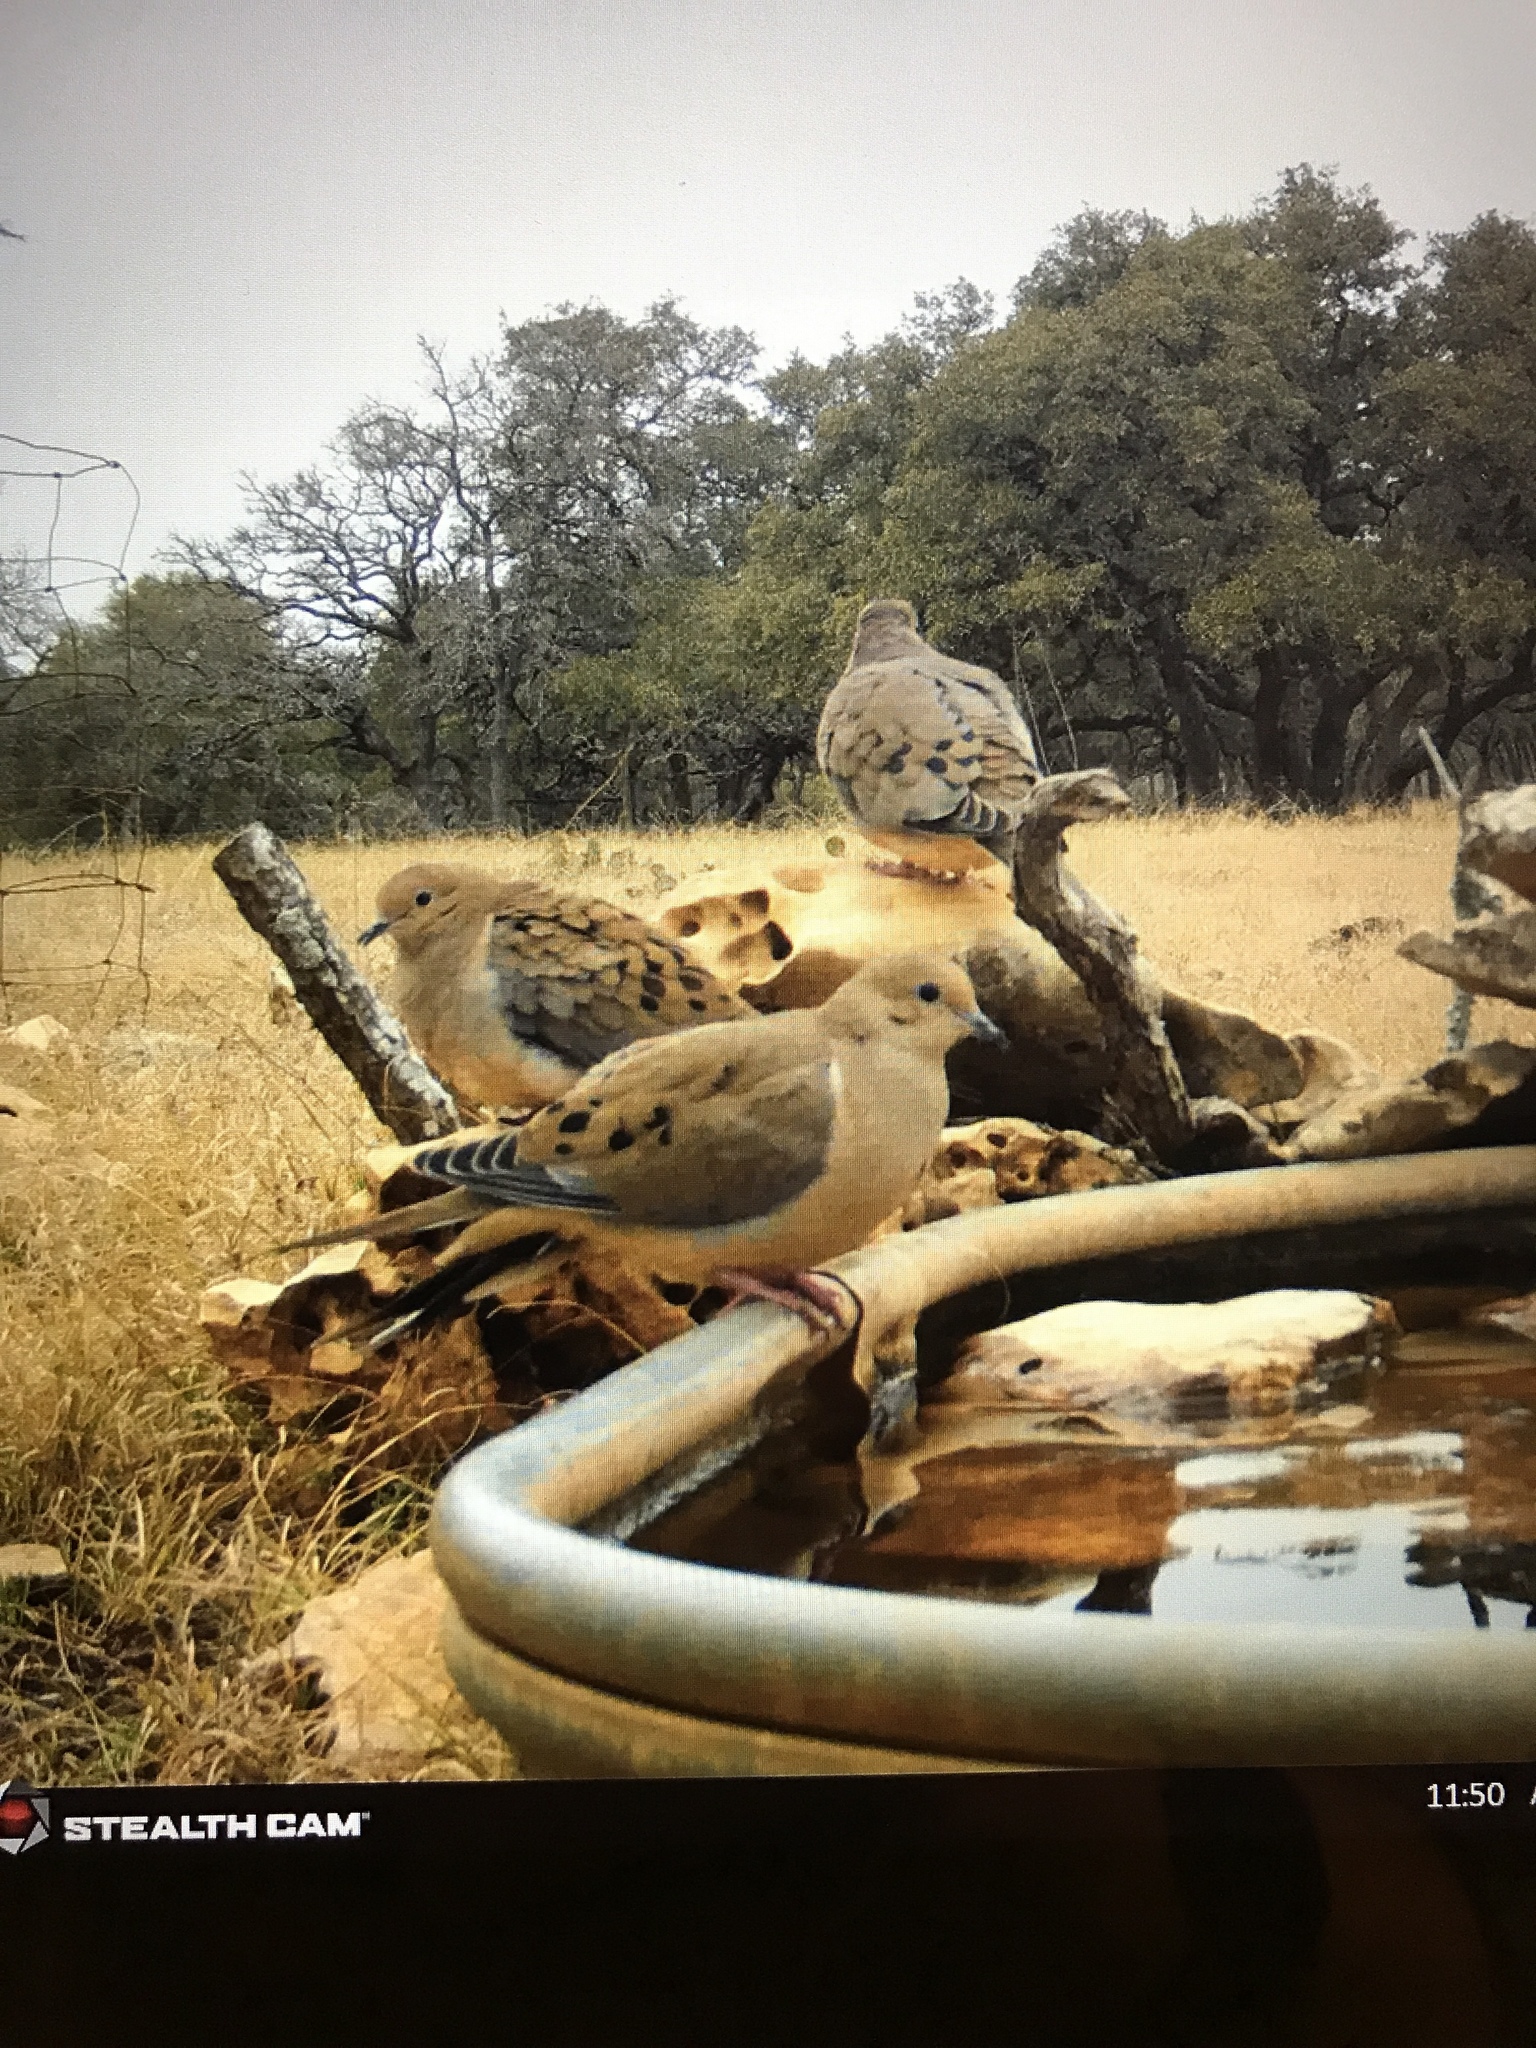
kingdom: Animalia
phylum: Chordata
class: Aves
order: Columbiformes
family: Columbidae
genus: Zenaida
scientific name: Zenaida macroura
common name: Mourning dove
